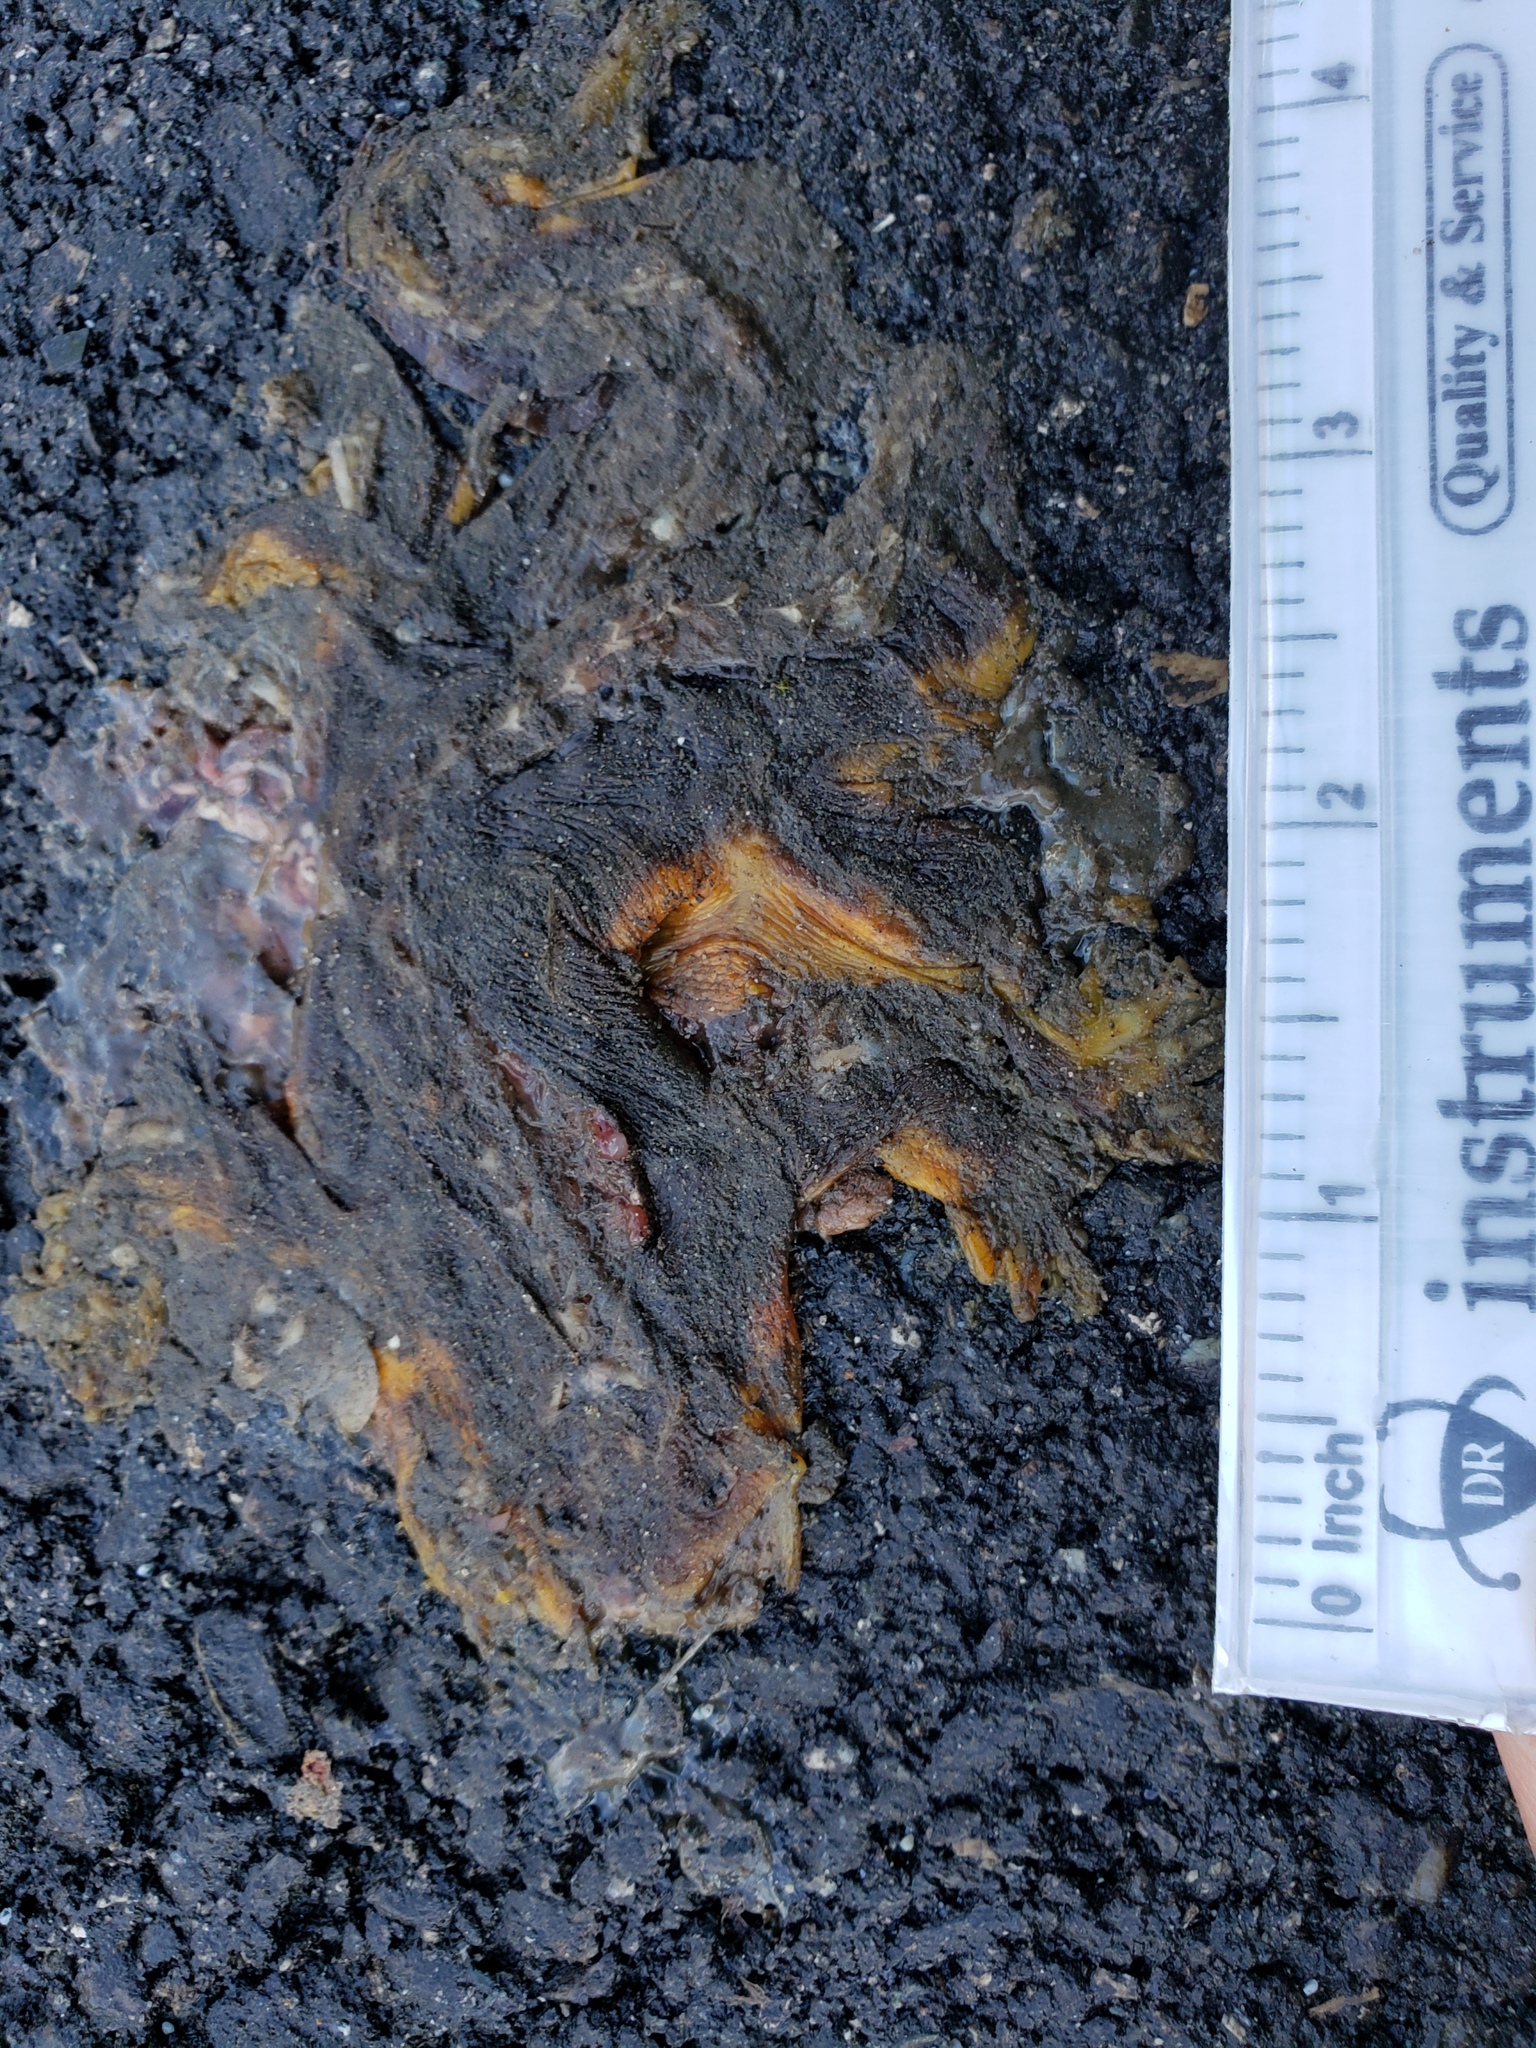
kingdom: Animalia
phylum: Chordata
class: Amphibia
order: Caudata
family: Salamandridae
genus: Taricha
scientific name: Taricha
